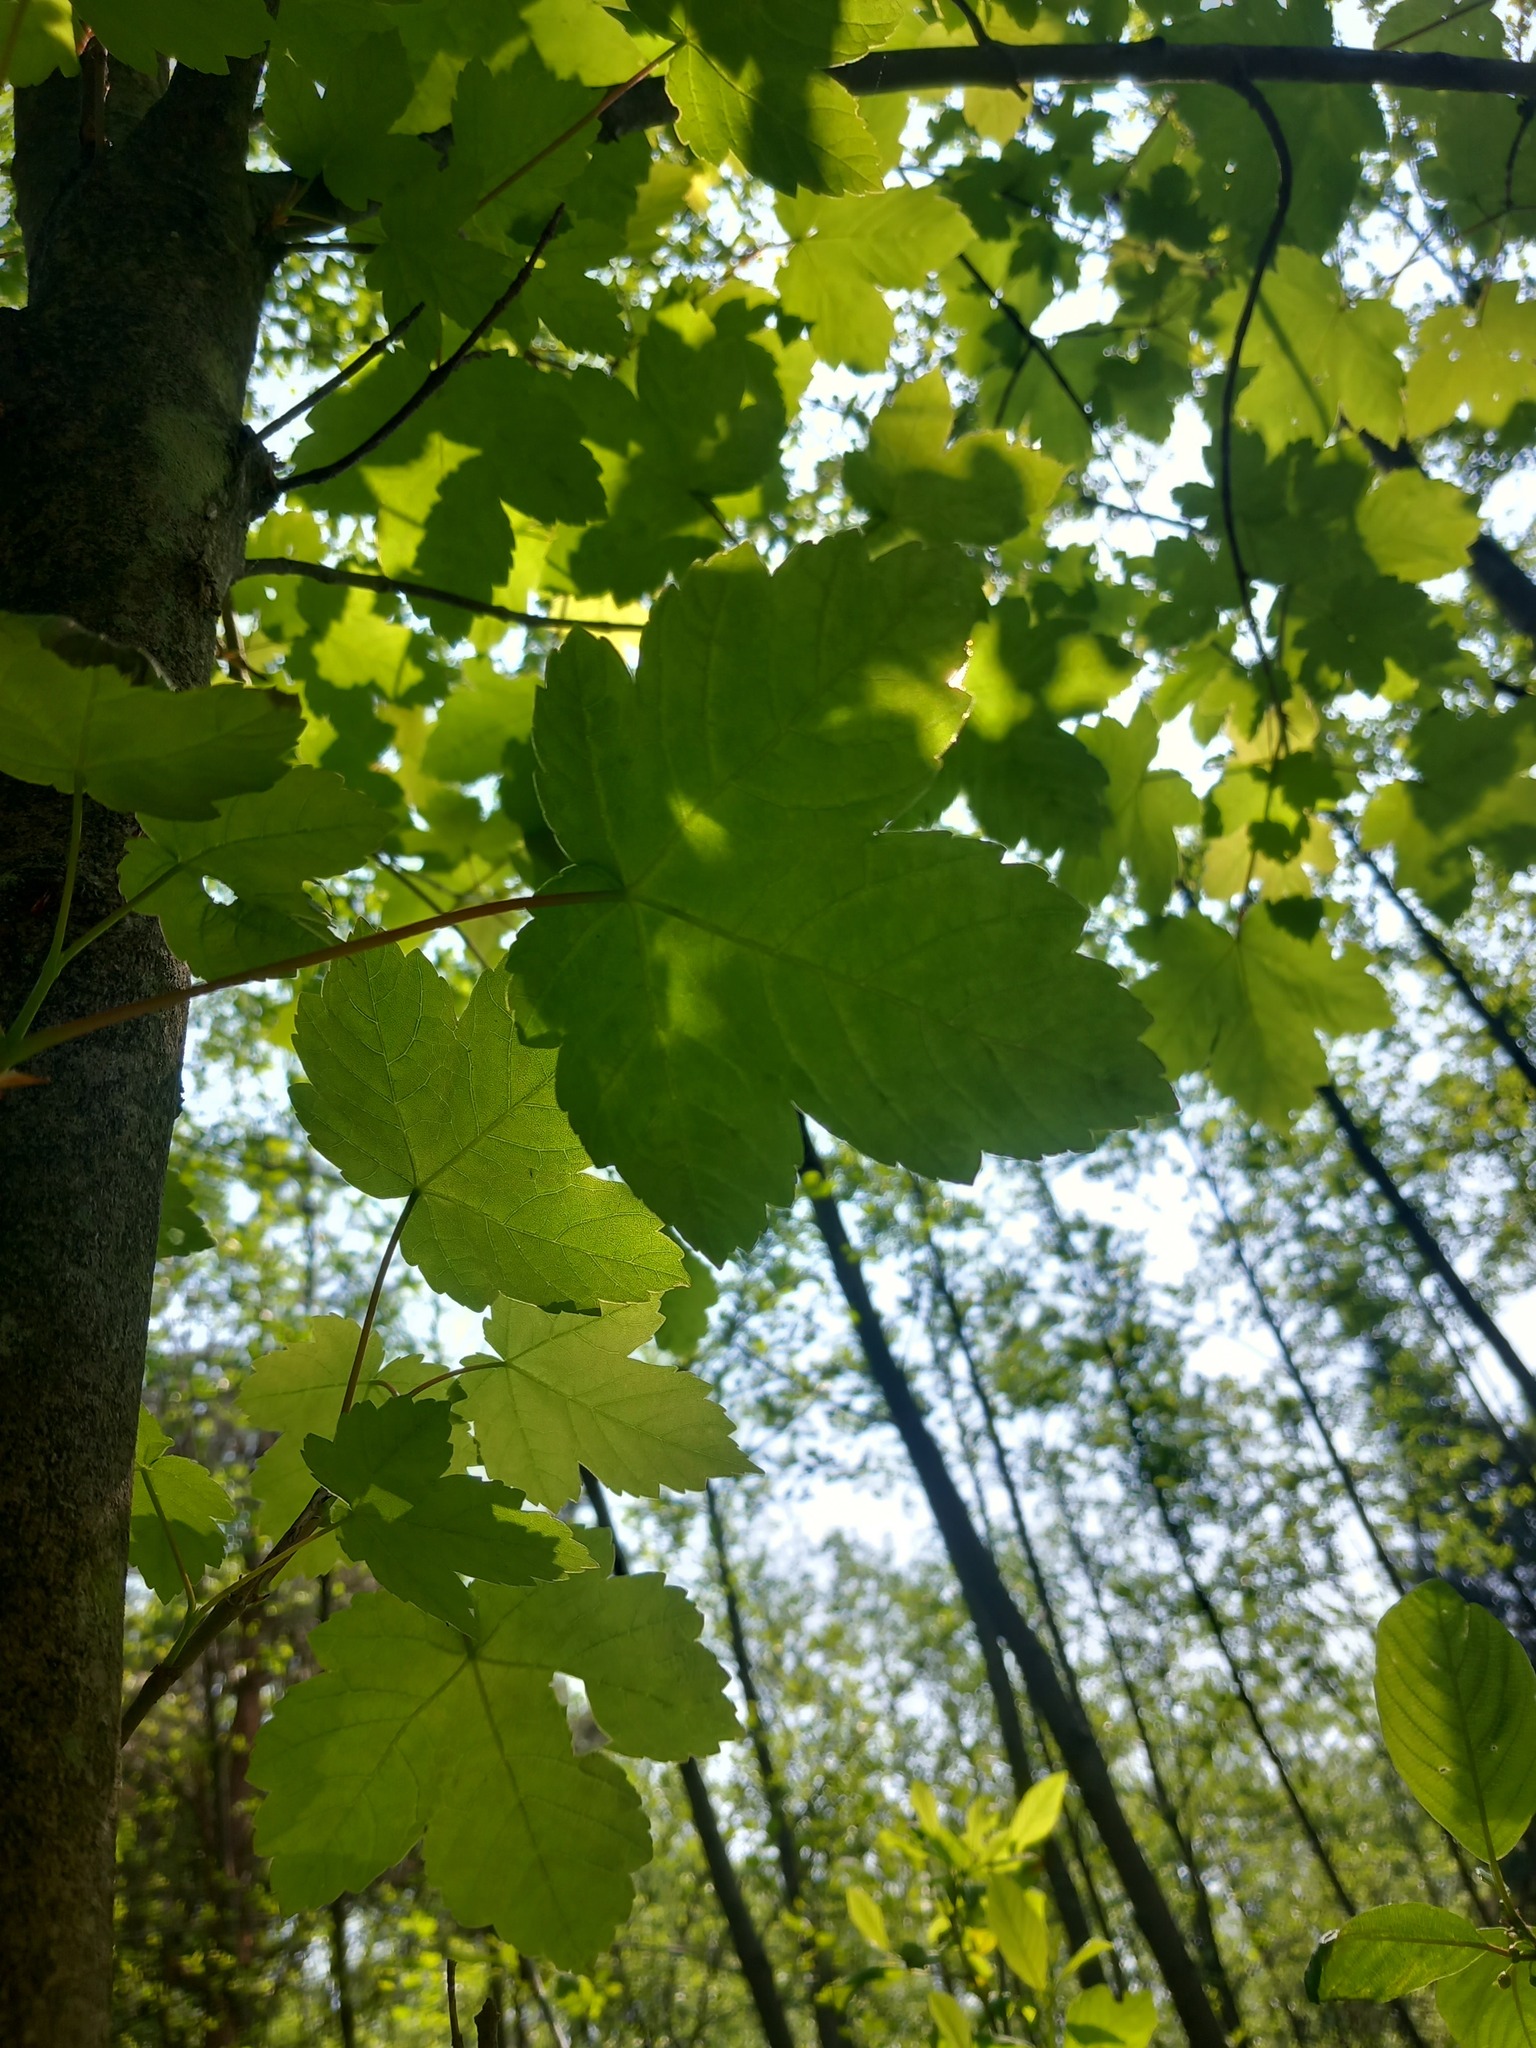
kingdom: Plantae
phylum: Tracheophyta
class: Magnoliopsida
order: Sapindales
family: Sapindaceae
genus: Acer
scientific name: Acer pseudoplatanus
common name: Sycamore
